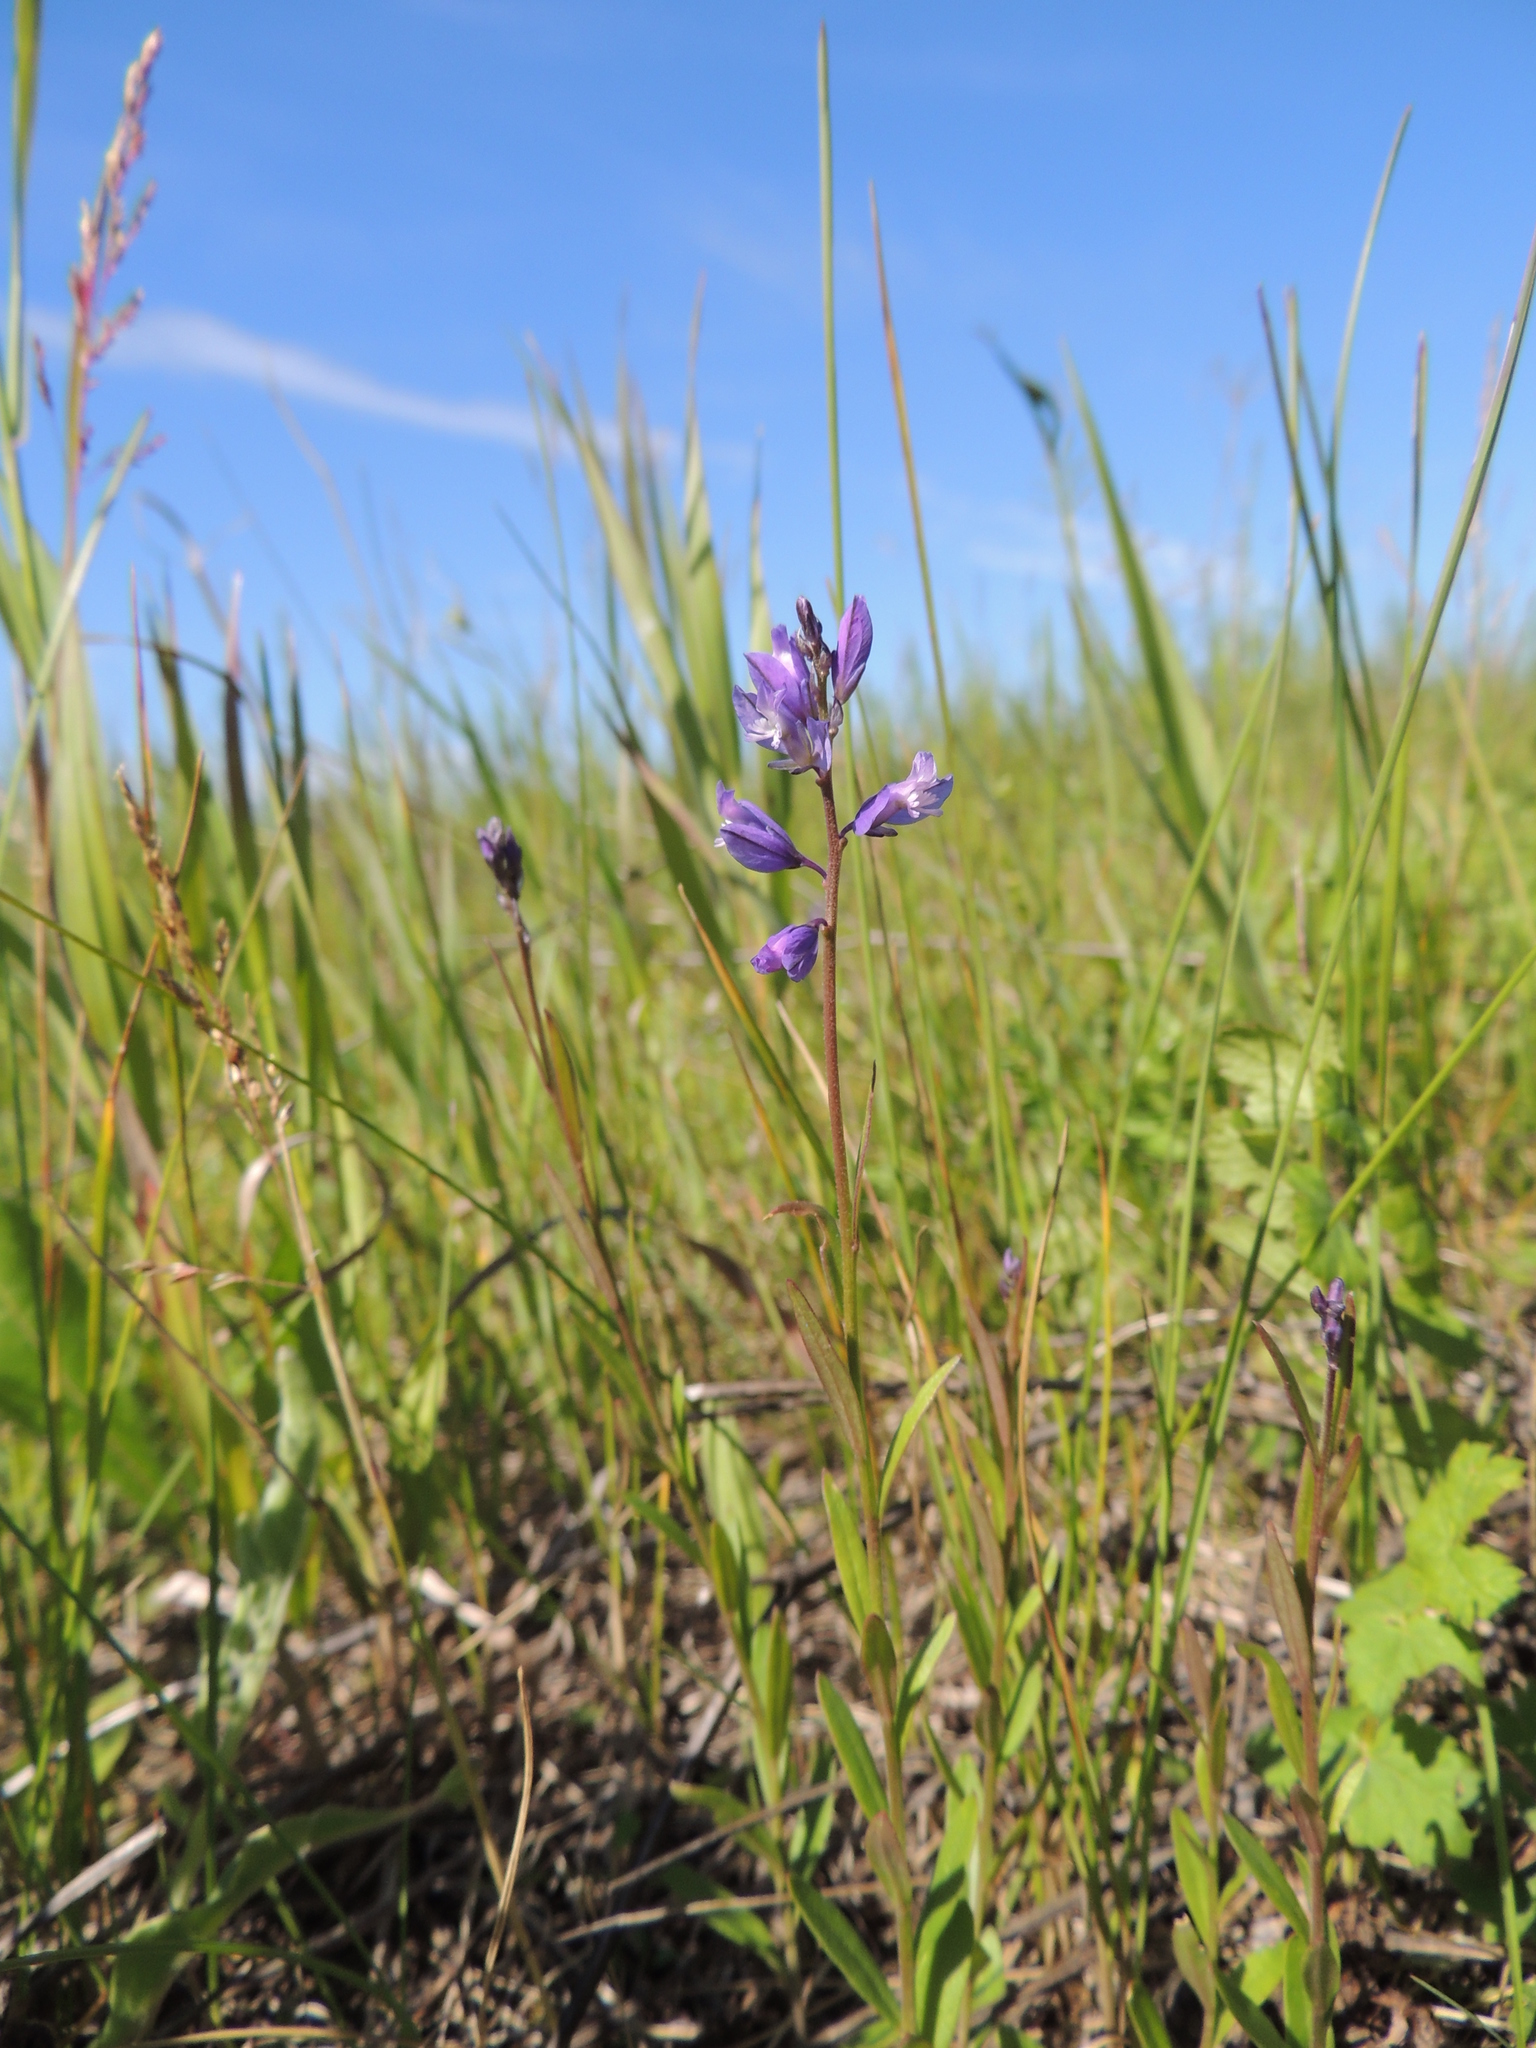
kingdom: Plantae
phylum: Tracheophyta
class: Magnoliopsida
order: Fabales
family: Polygalaceae
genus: Polygala
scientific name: Polygala comosa
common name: Tufted milkwort
